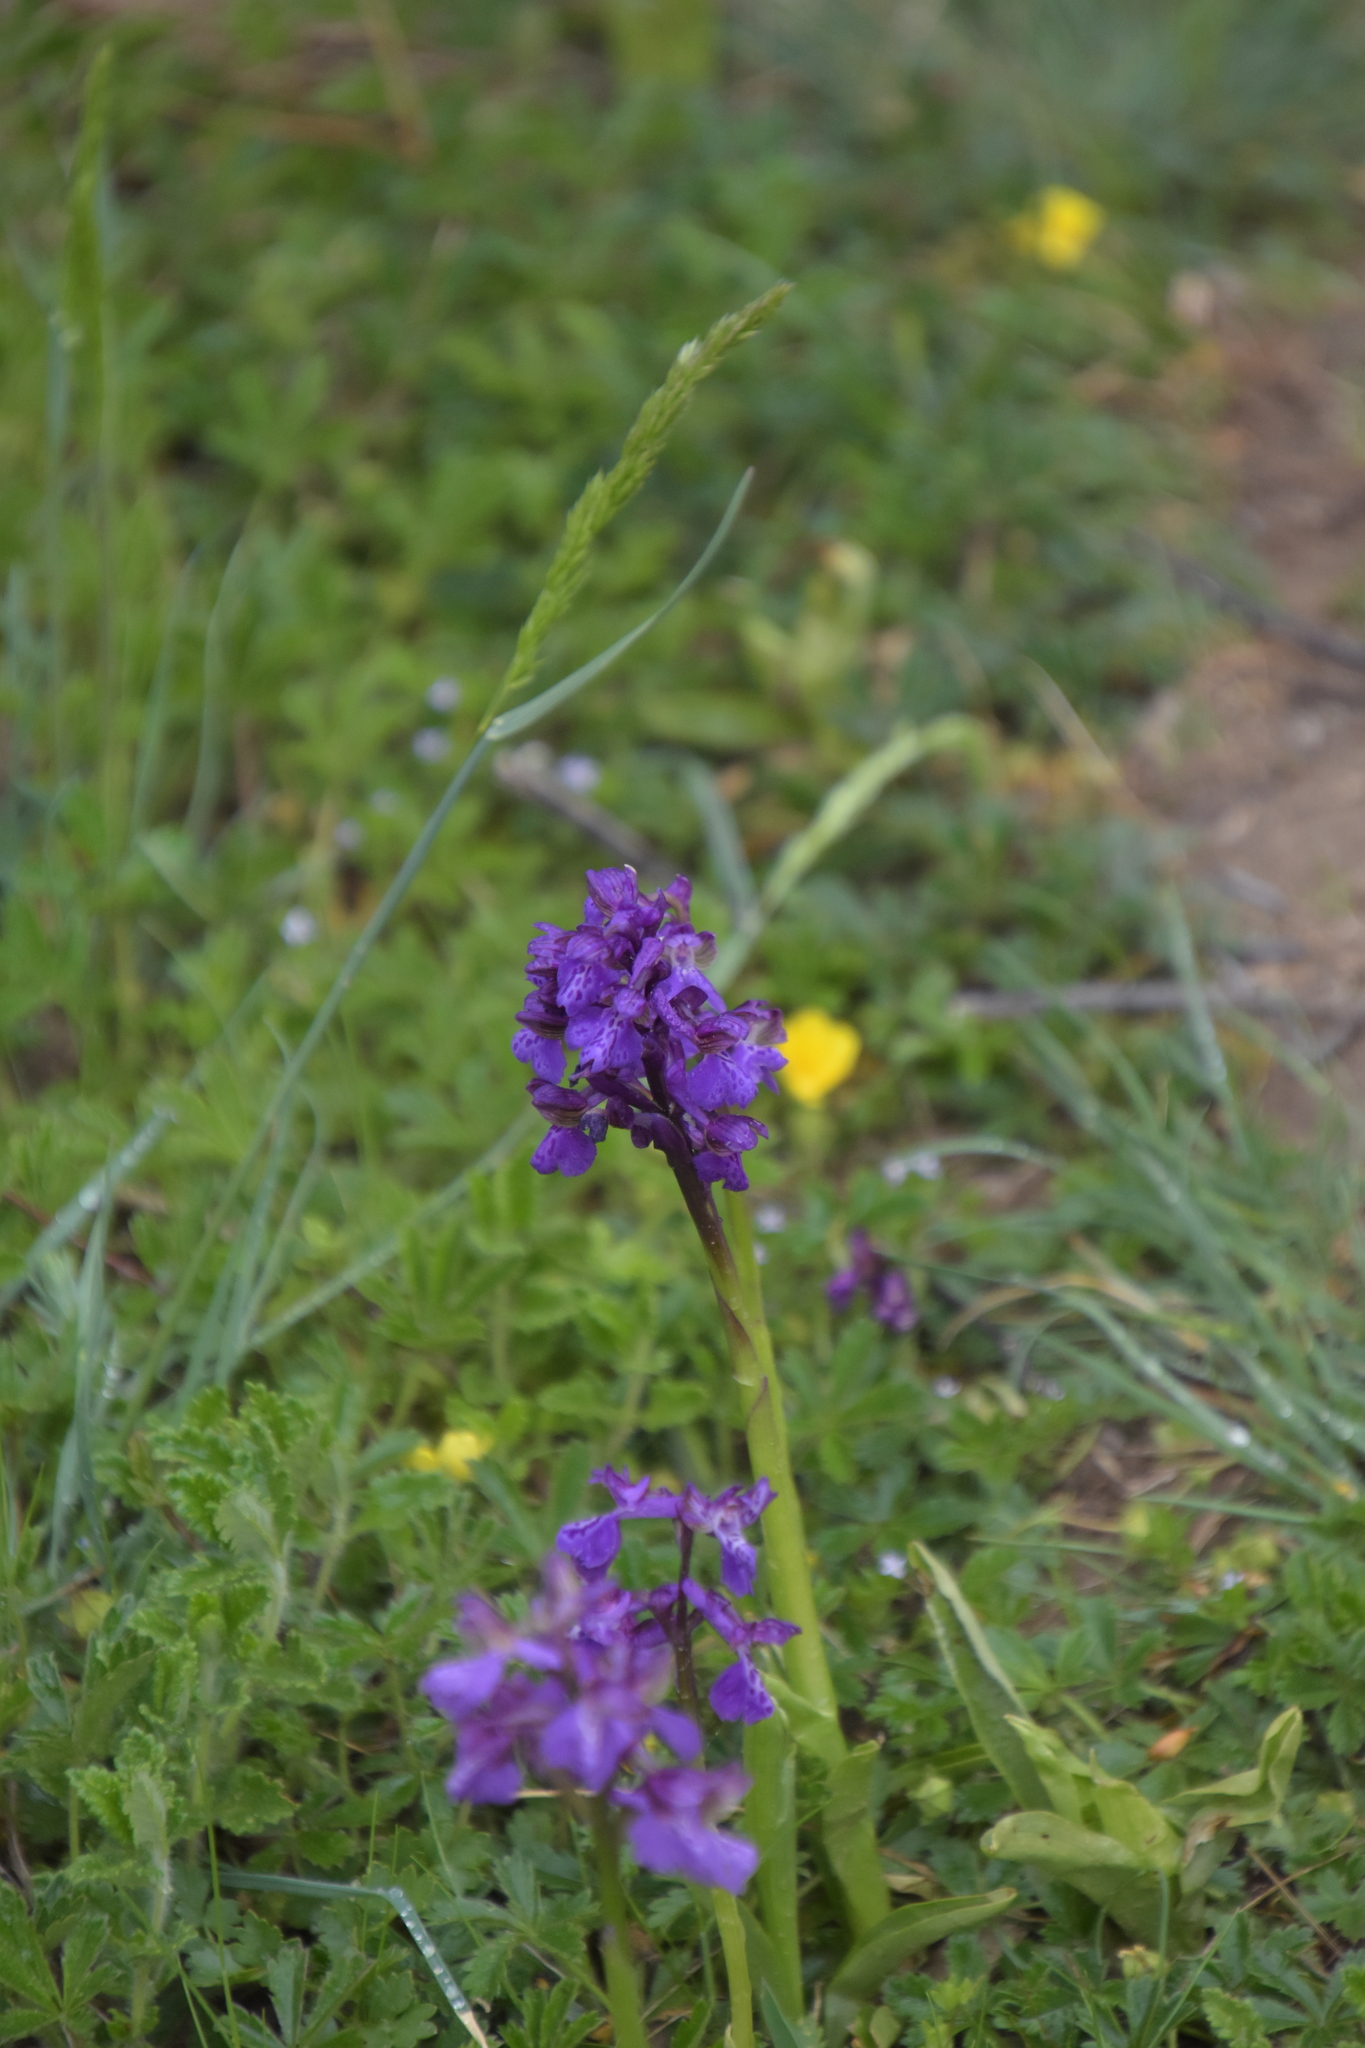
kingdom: Plantae
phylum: Tracheophyta
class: Liliopsida
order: Asparagales
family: Orchidaceae
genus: Anacamptis
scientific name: Anacamptis morio
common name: Green-winged orchid
